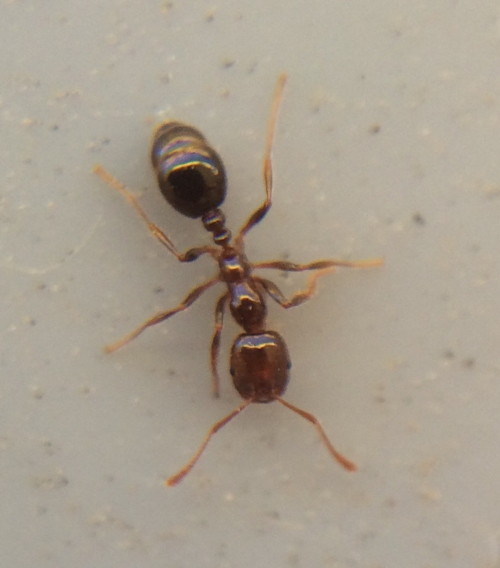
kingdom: Animalia
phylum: Arthropoda
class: Insecta
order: Hymenoptera
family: Formicidae
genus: Solenopsis
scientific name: Solenopsis invicta
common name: Red imported fire ant
